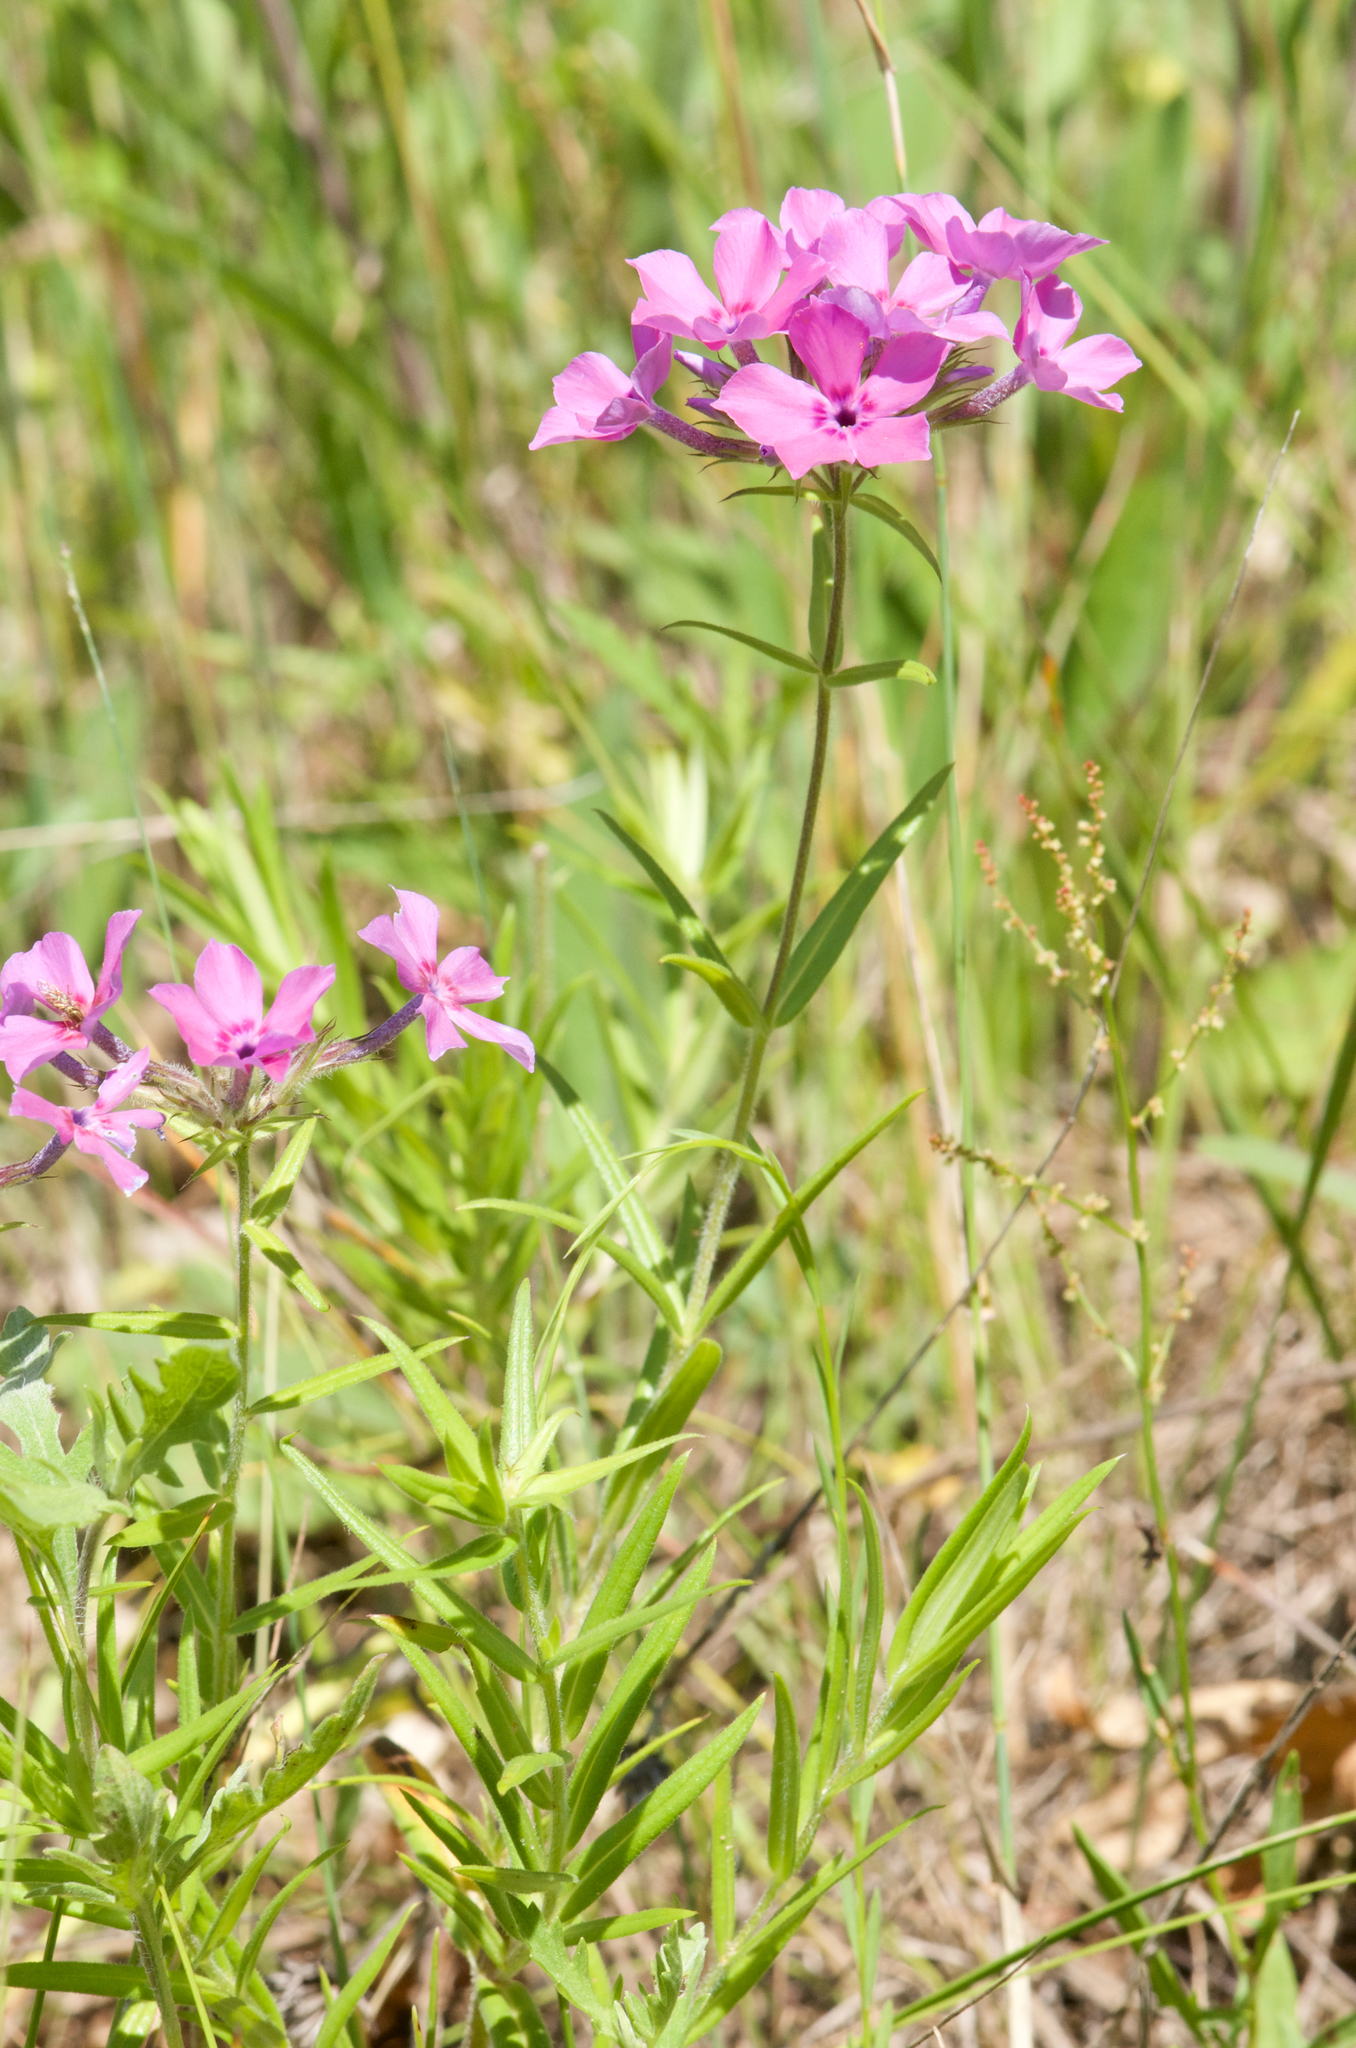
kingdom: Plantae
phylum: Tracheophyta
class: Magnoliopsida
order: Ericales
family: Polemoniaceae
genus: Phlox
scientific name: Phlox pilosa
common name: Prairie phlox
